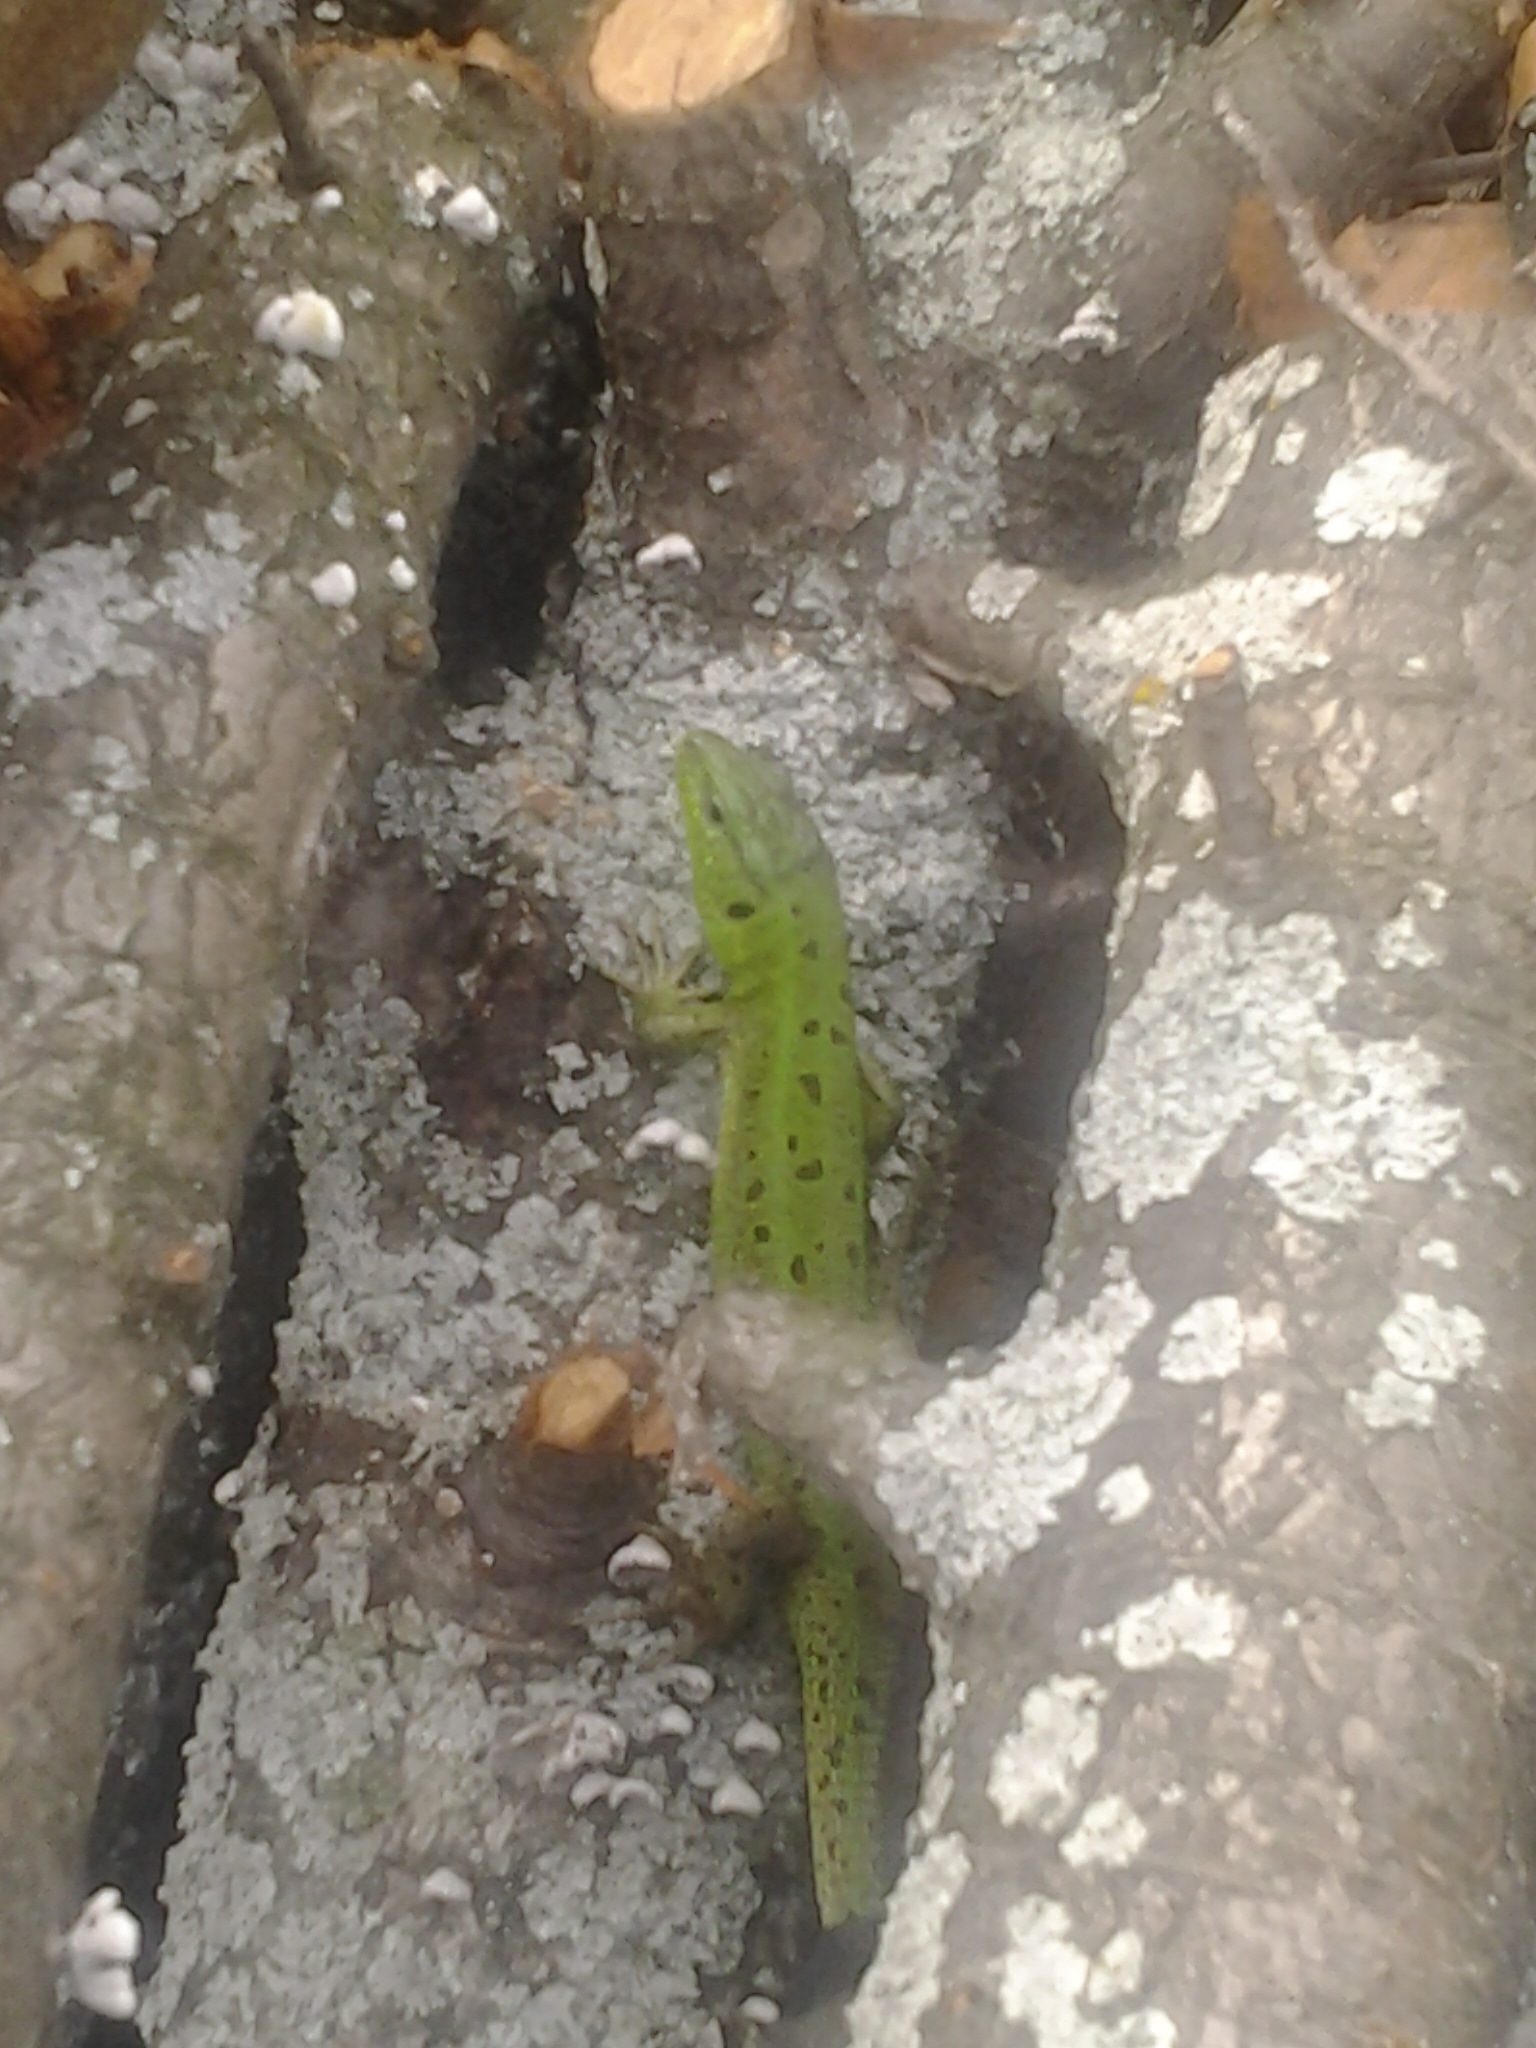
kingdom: Animalia
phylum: Chordata
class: Squamata
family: Lacertidae
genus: Lacerta
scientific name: Lacerta agilis
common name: Sand lizard
